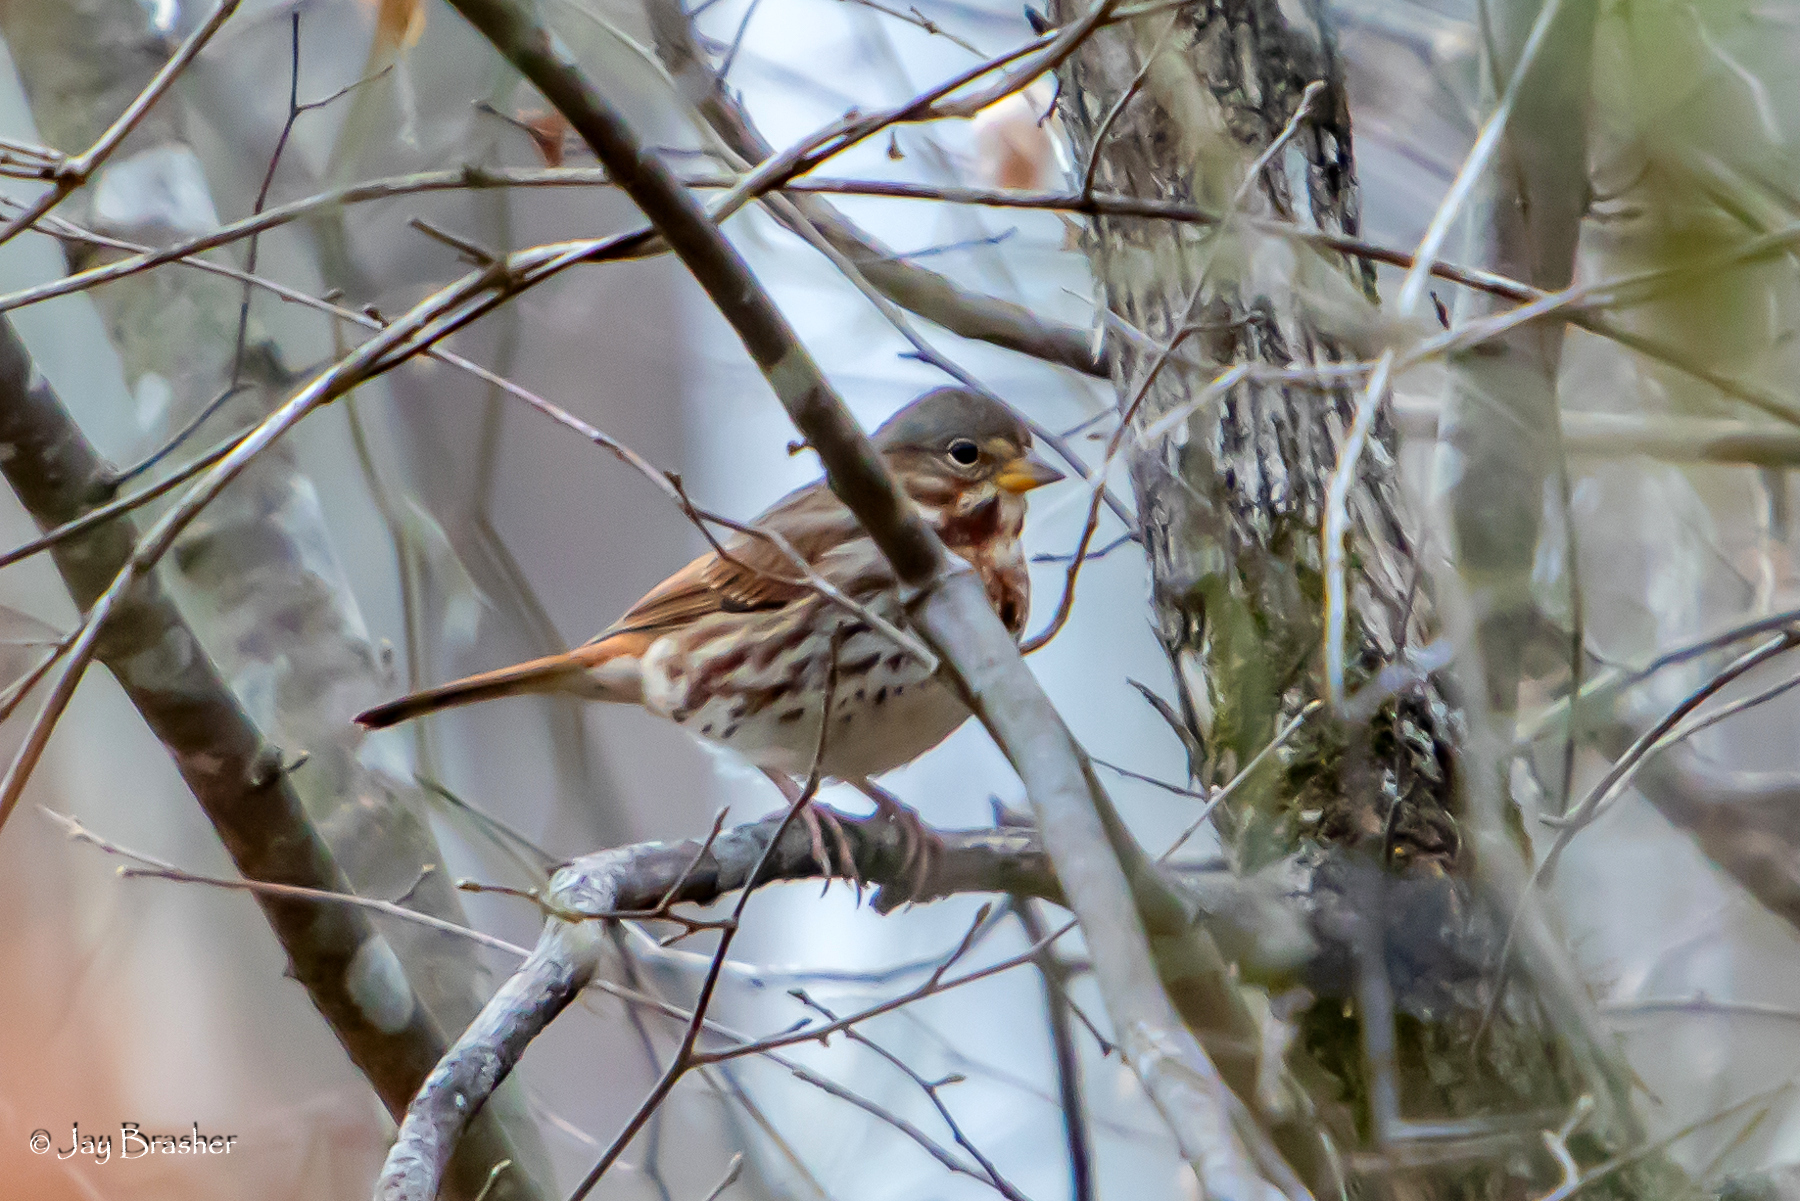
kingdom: Animalia
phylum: Chordata
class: Aves
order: Passeriformes
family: Passerellidae
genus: Passerella
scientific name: Passerella iliaca
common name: Fox sparrow
